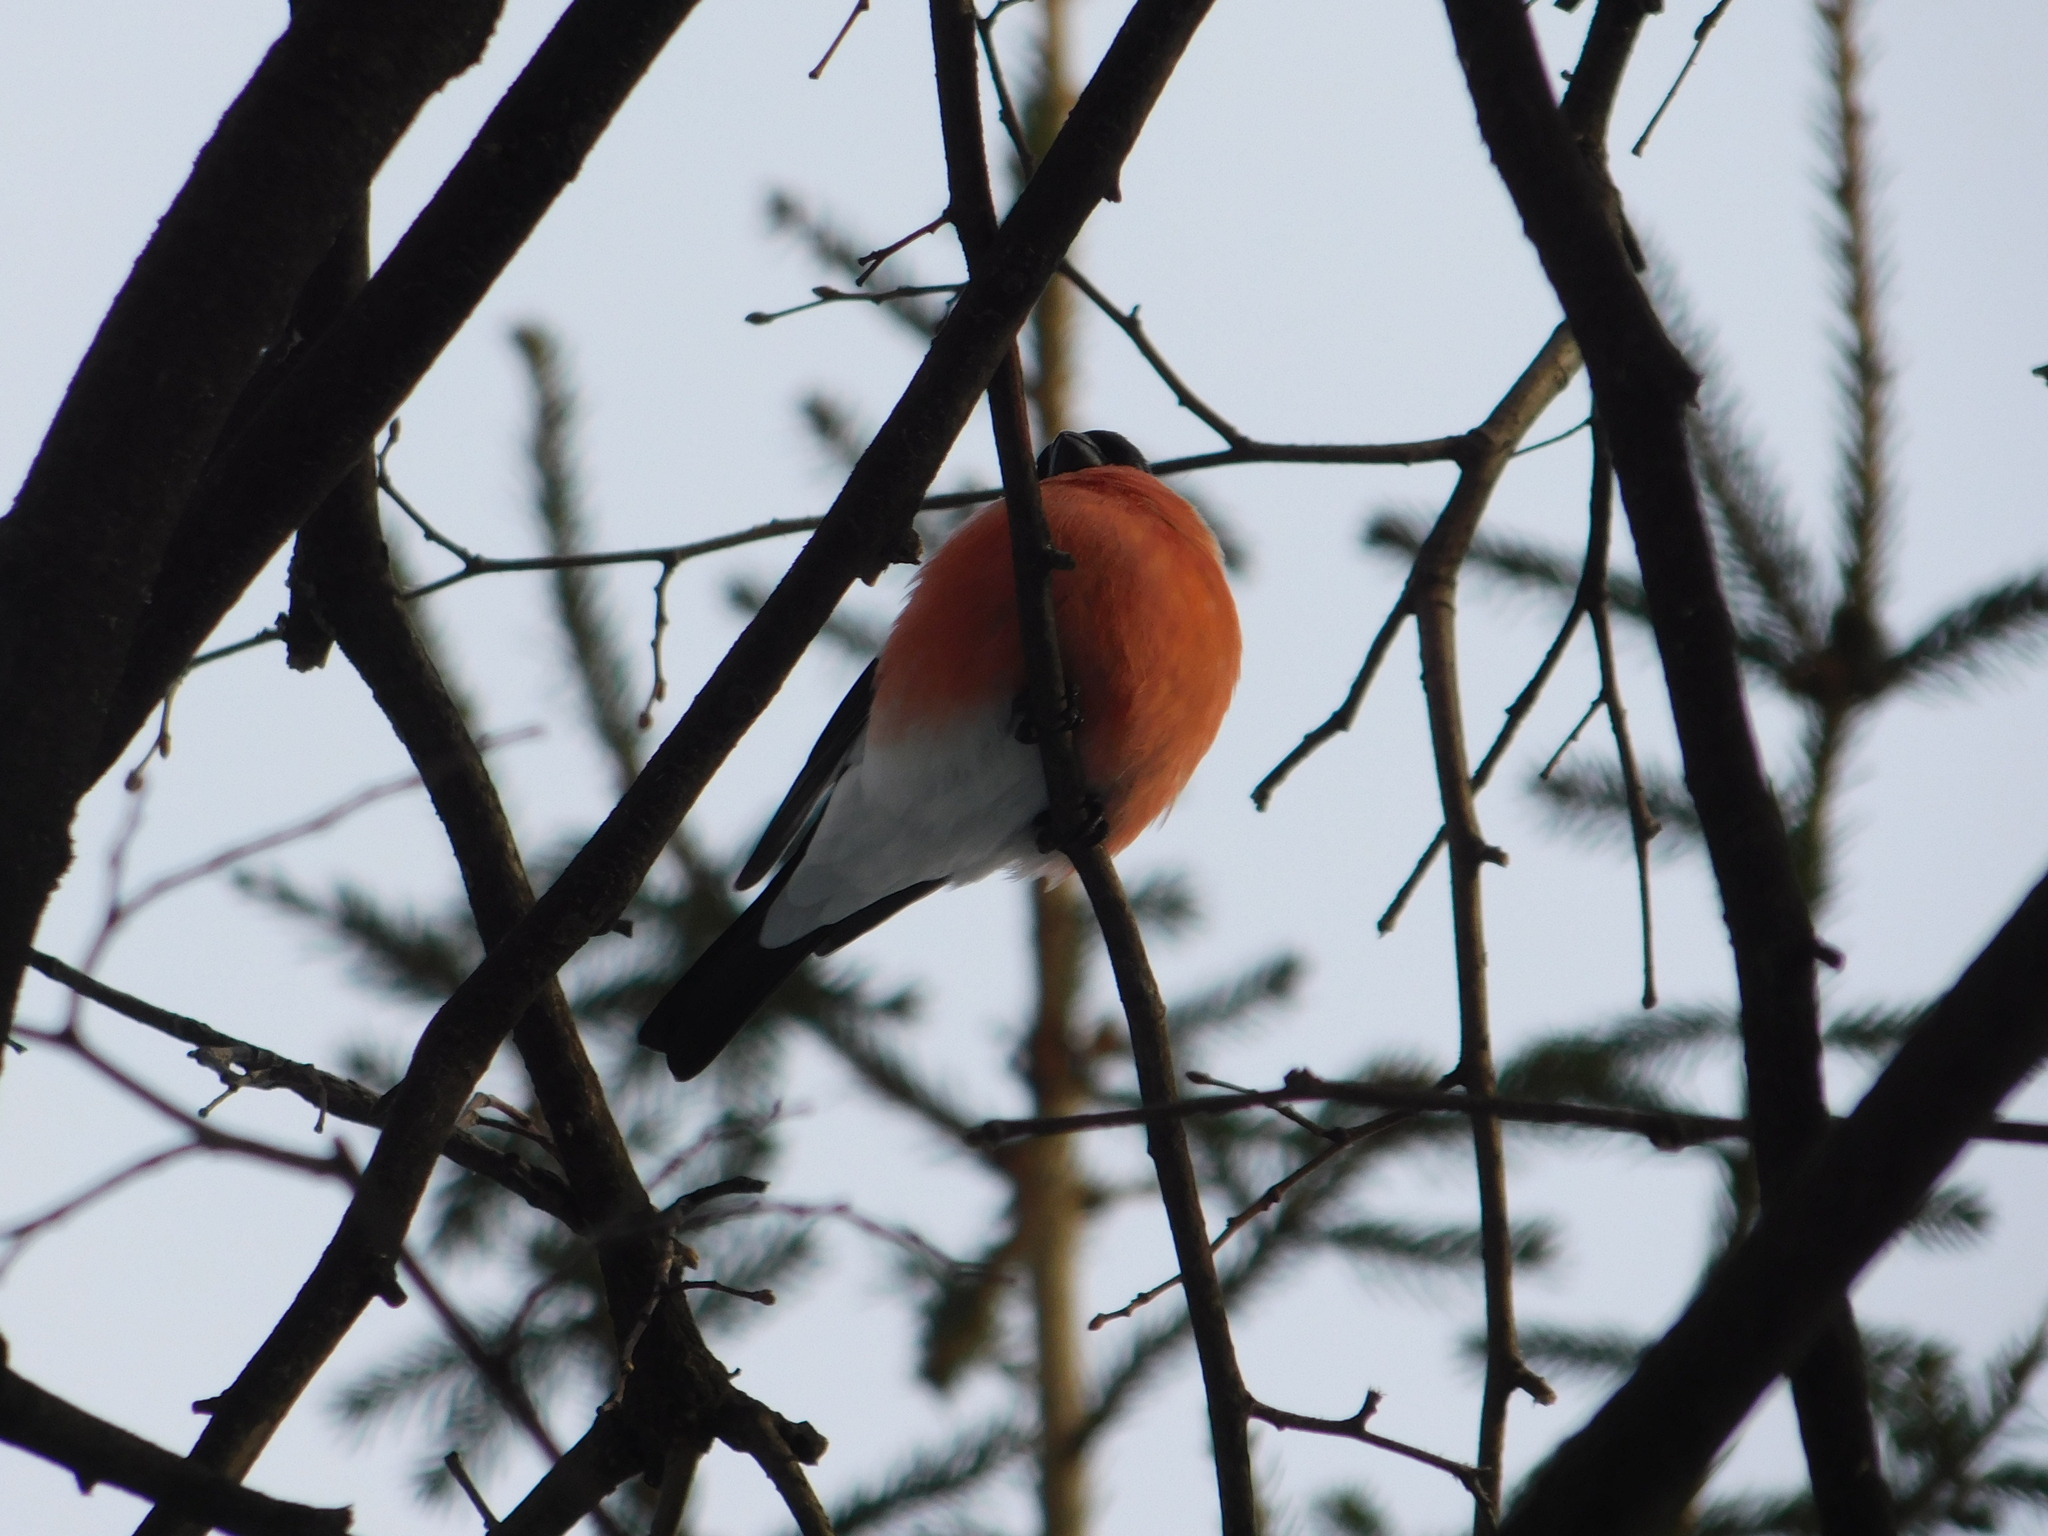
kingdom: Animalia
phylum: Chordata
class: Aves
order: Passeriformes
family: Fringillidae
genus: Pyrrhula
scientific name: Pyrrhula pyrrhula
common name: Eurasian bullfinch
